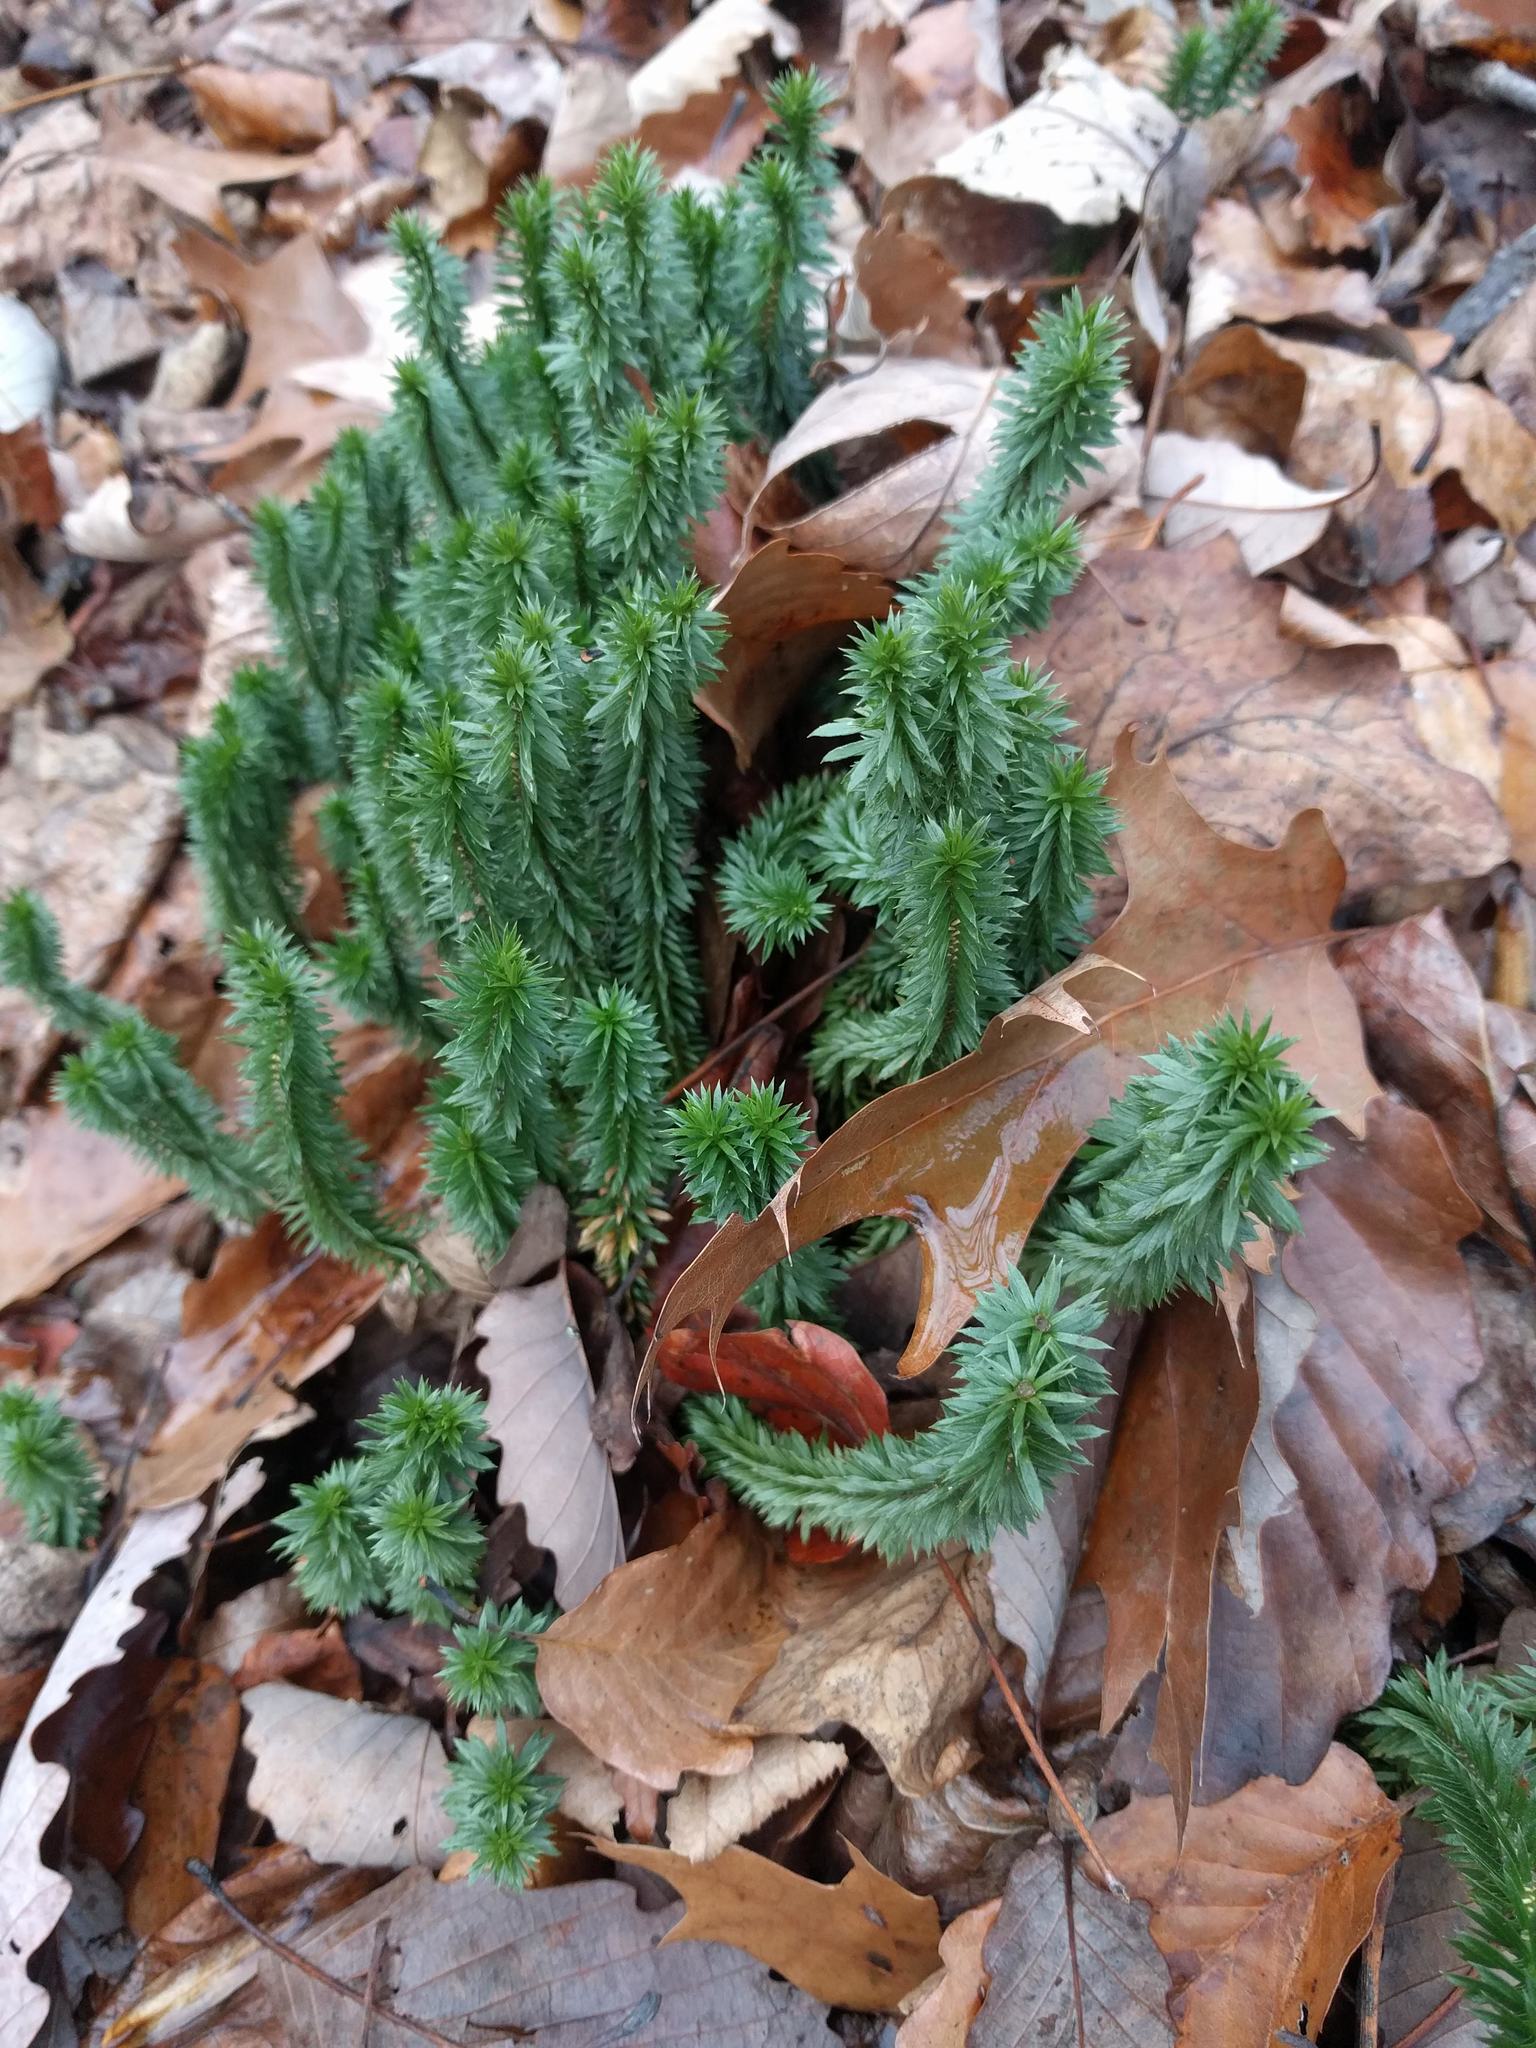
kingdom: Plantae
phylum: Tracheophyta
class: Lycopodiopsida
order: Lycopodiales
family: Lycopodiaceae
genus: Huperzia
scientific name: Huperzia lucidula
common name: Shining clubmoss
